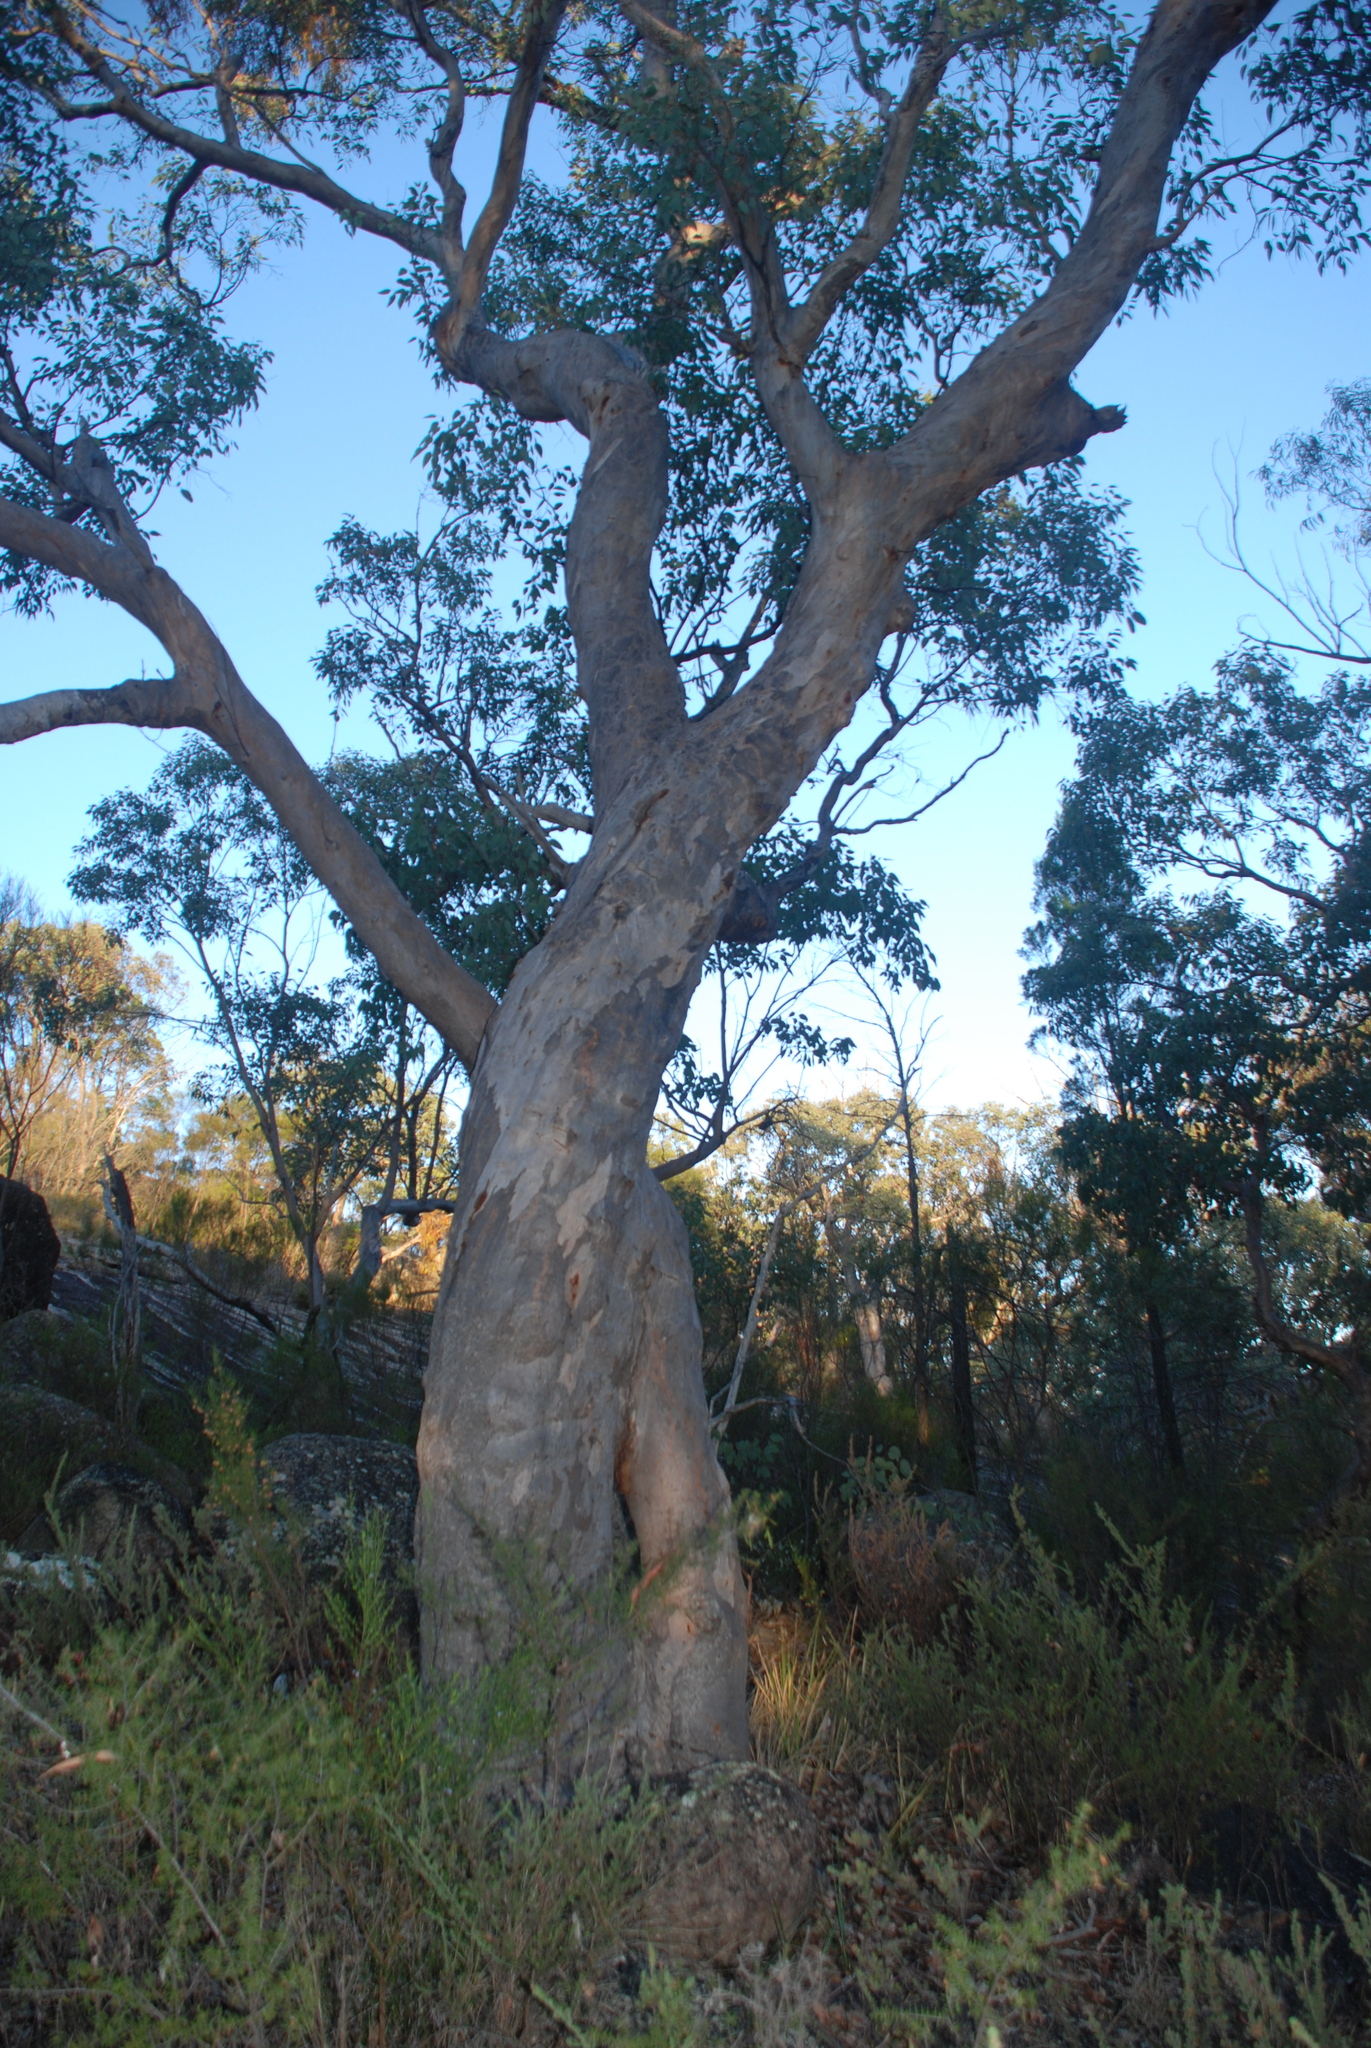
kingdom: Plantae
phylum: Tracheophyta
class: Magnoliopsida
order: Myrtales
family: Myrtaceae
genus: Eucalyptus
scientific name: Eucalyptus prava
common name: Orange gum
